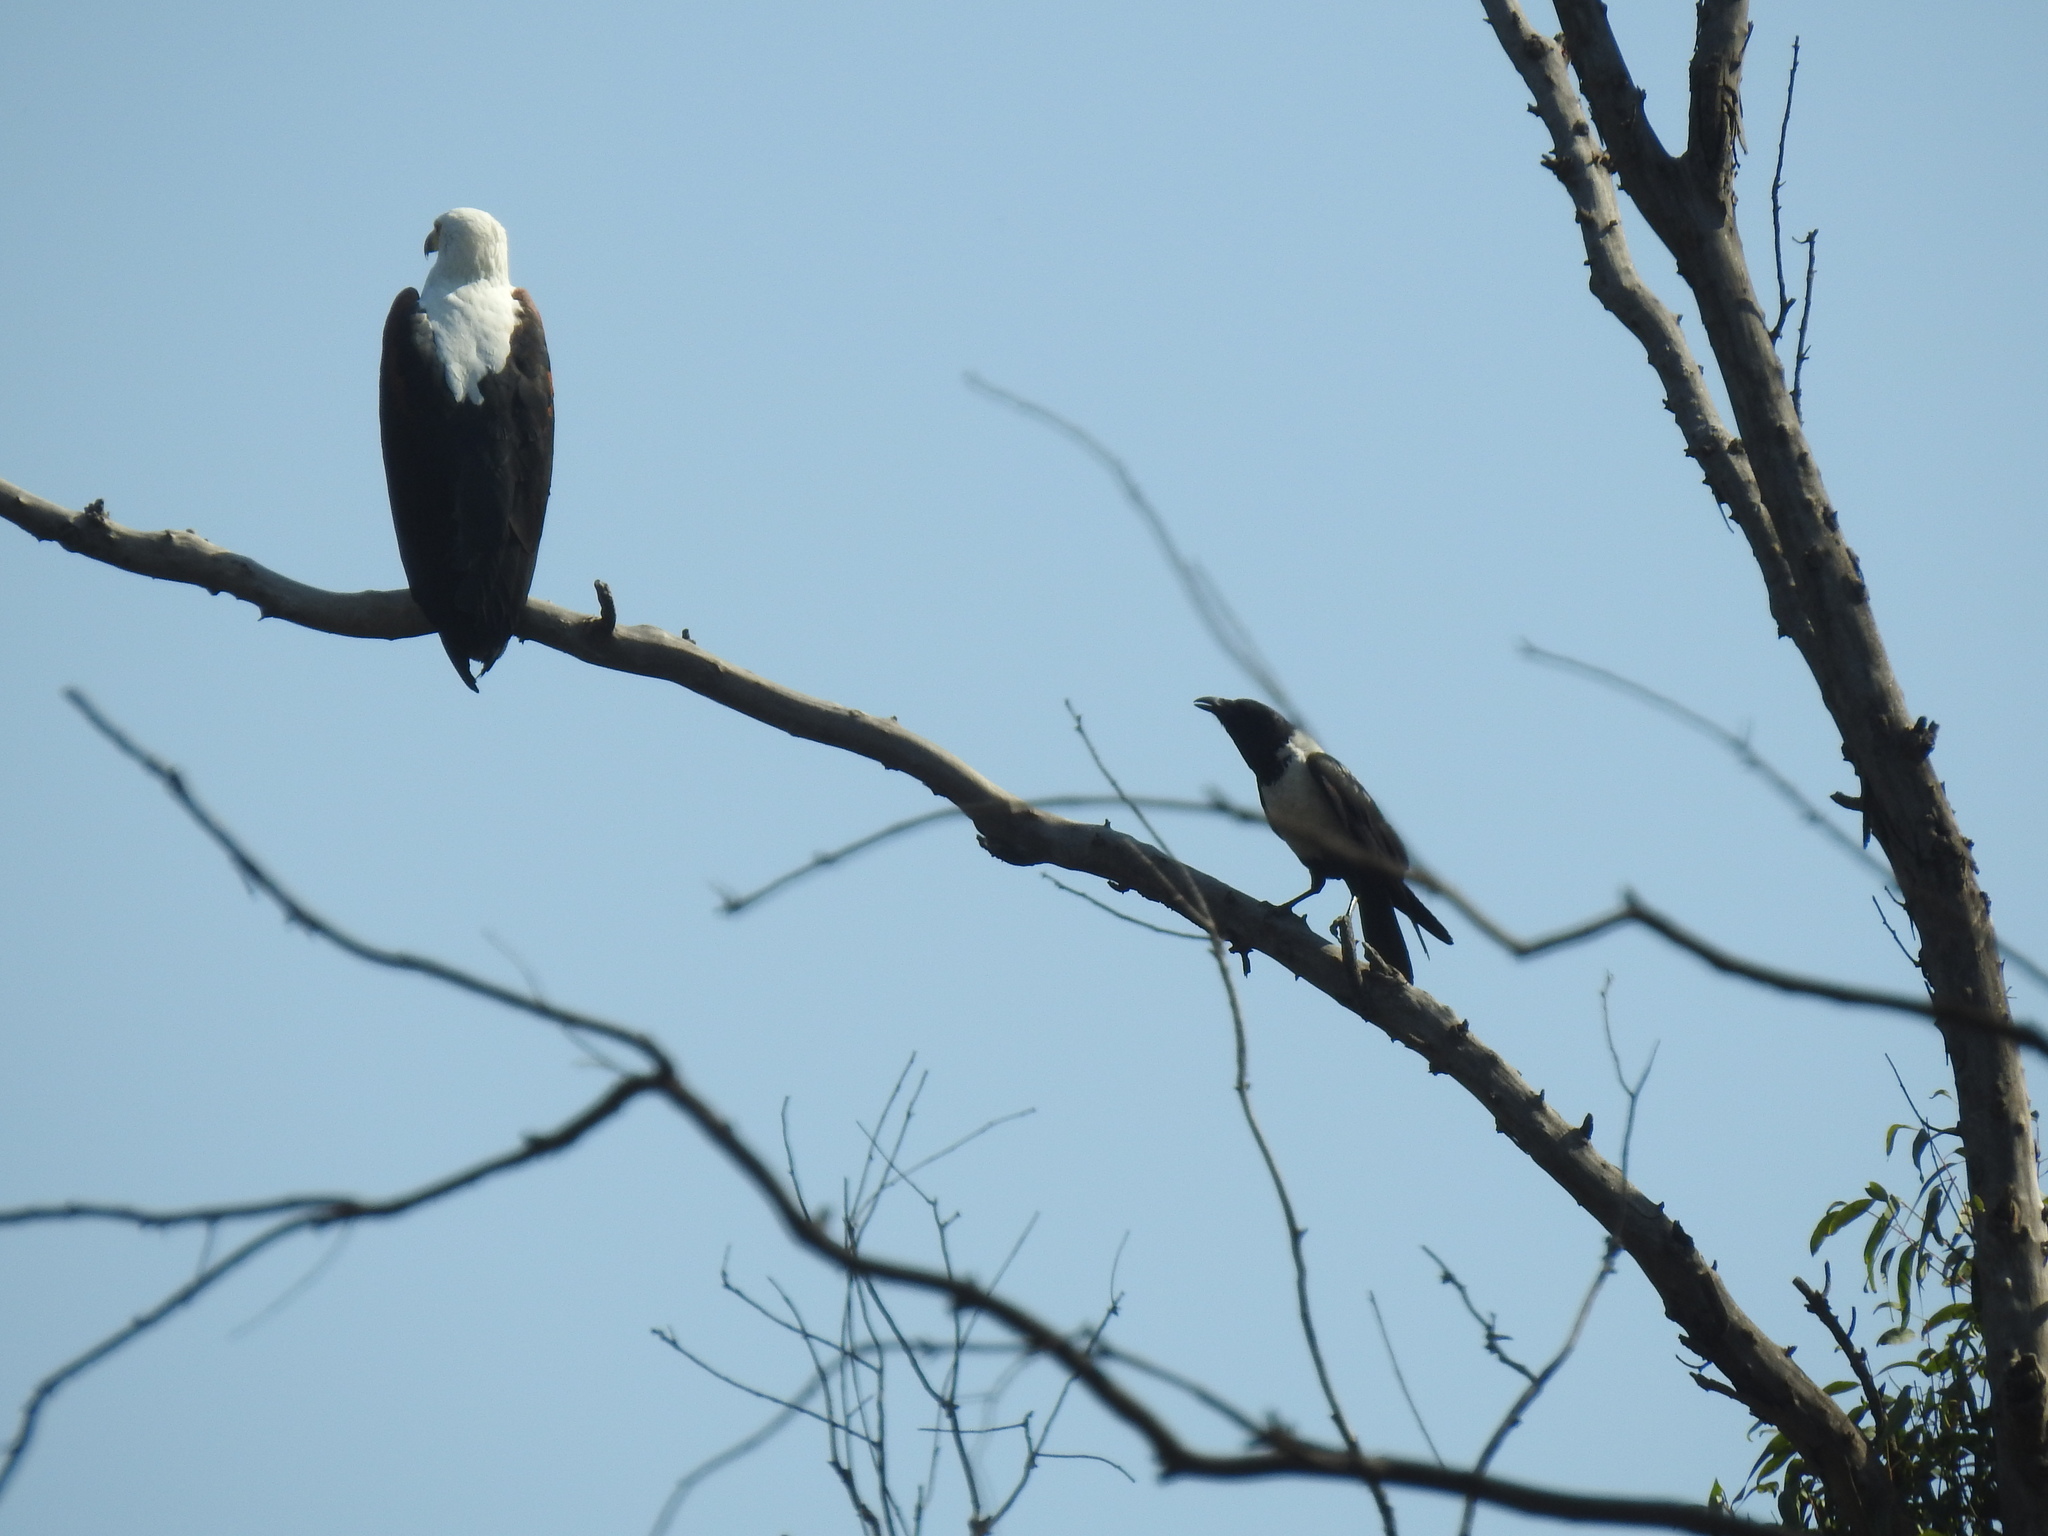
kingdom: Animalia
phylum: Chordata
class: Aves
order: Passeriformes
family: Corvidae
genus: Corvus
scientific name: Corvus albus
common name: Pied crow
